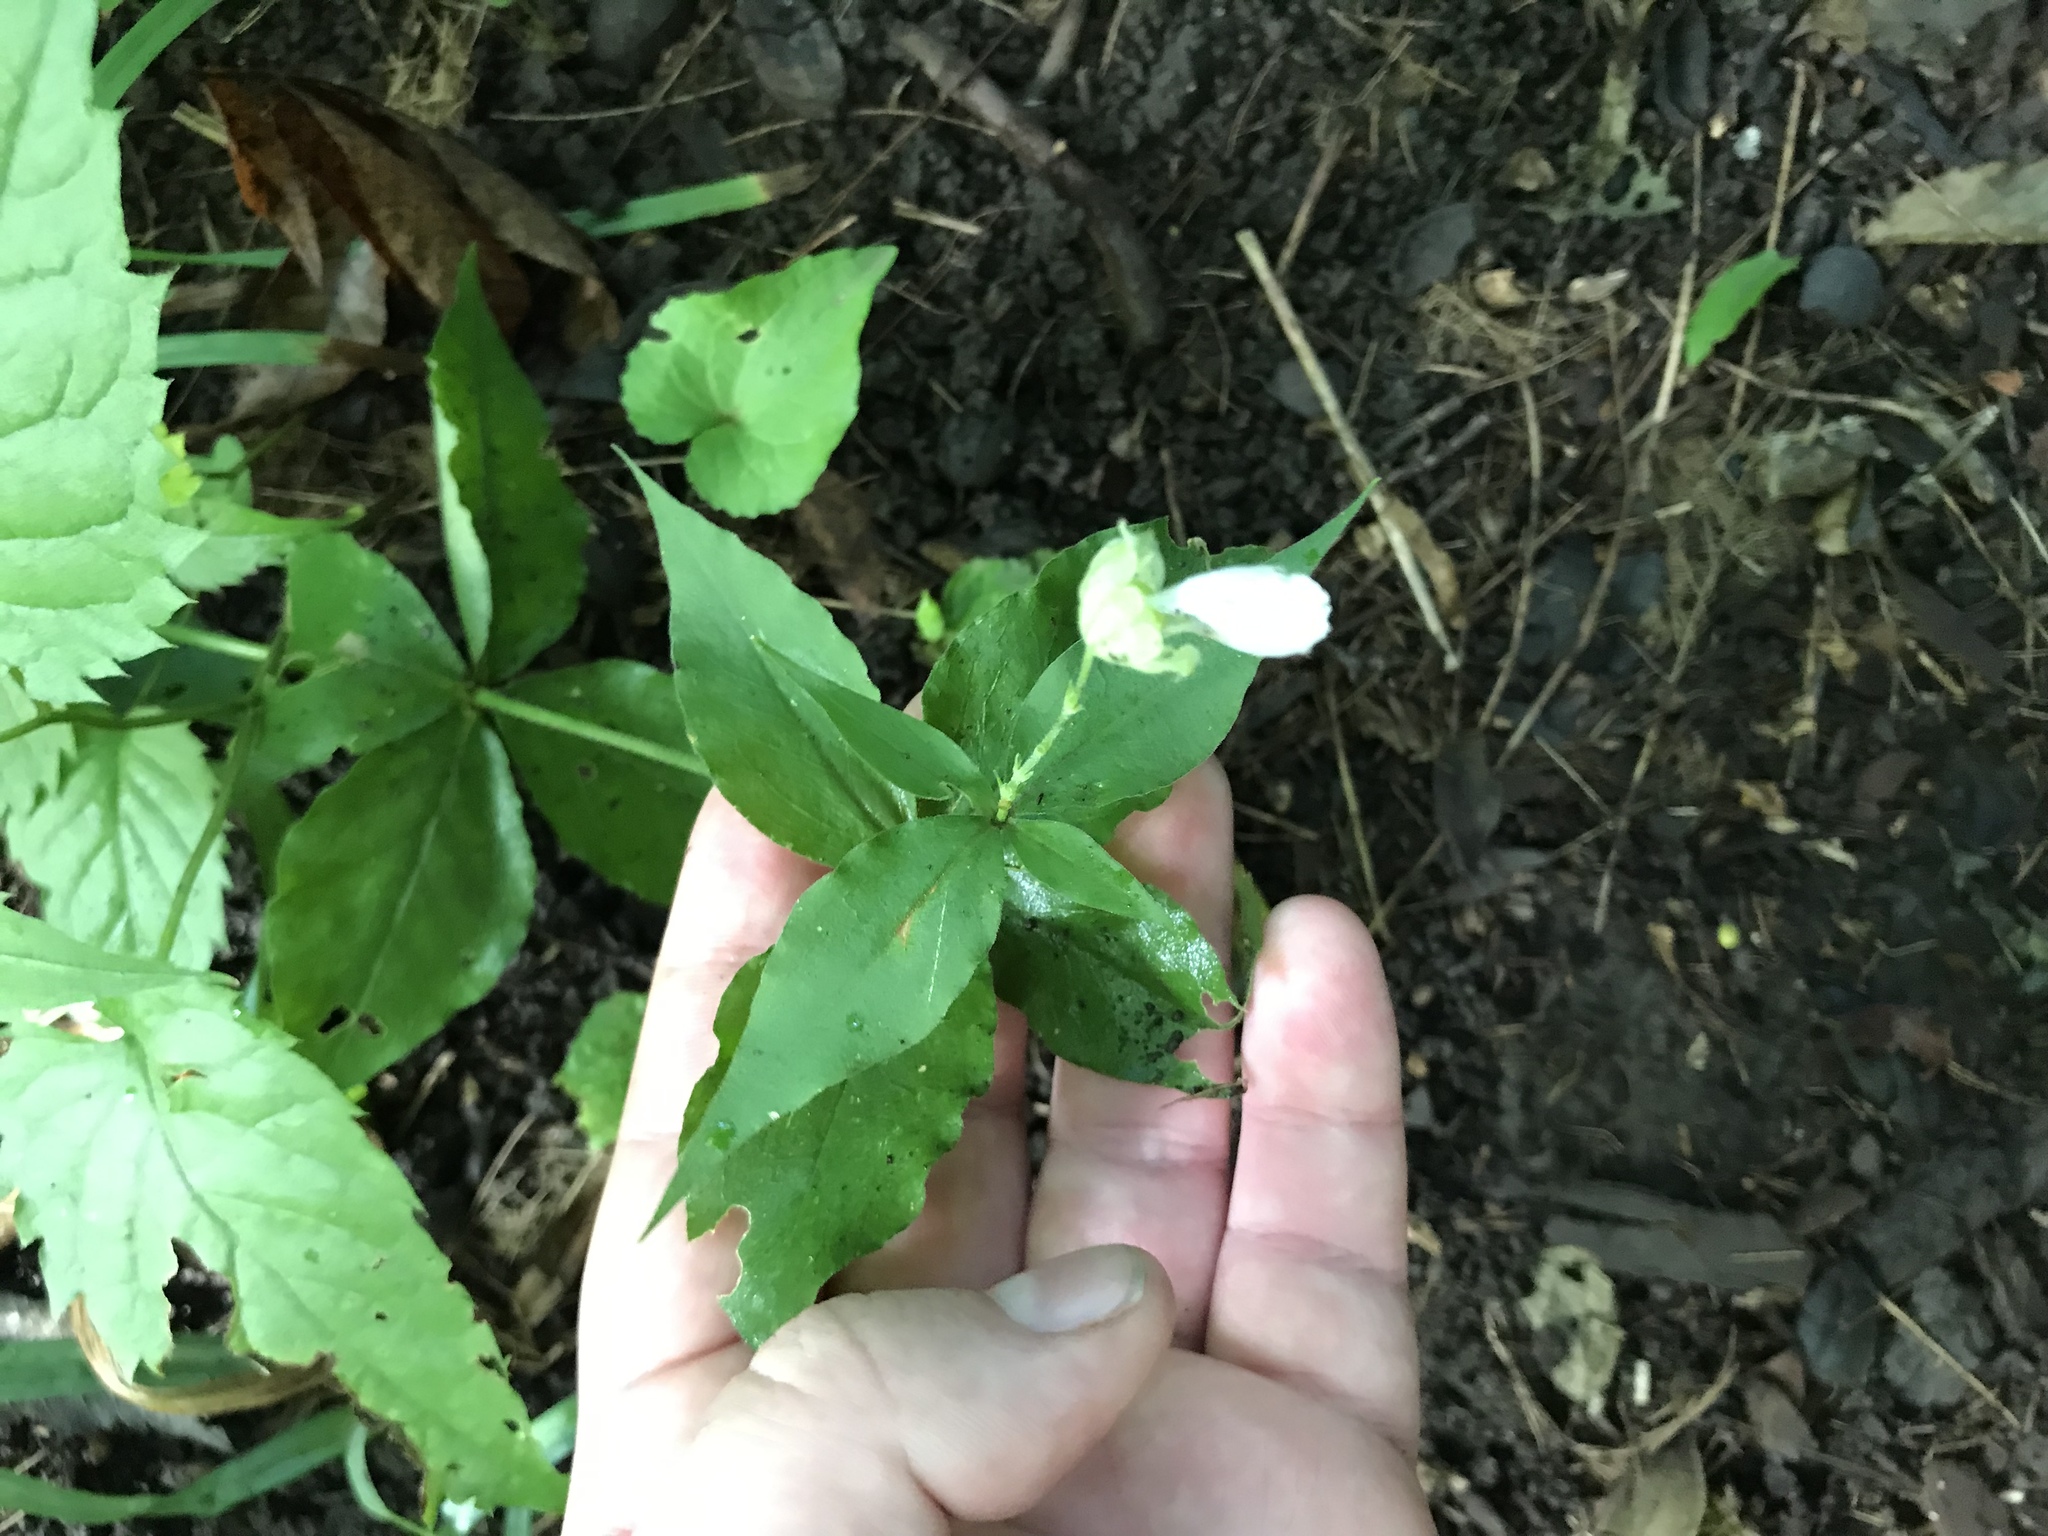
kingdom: Plantae
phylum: Tracheophyta
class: Magnoliopsida
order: Caryophyllales
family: Caryophyllaceae
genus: Silene
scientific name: Silene stellata
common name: Starry campion
